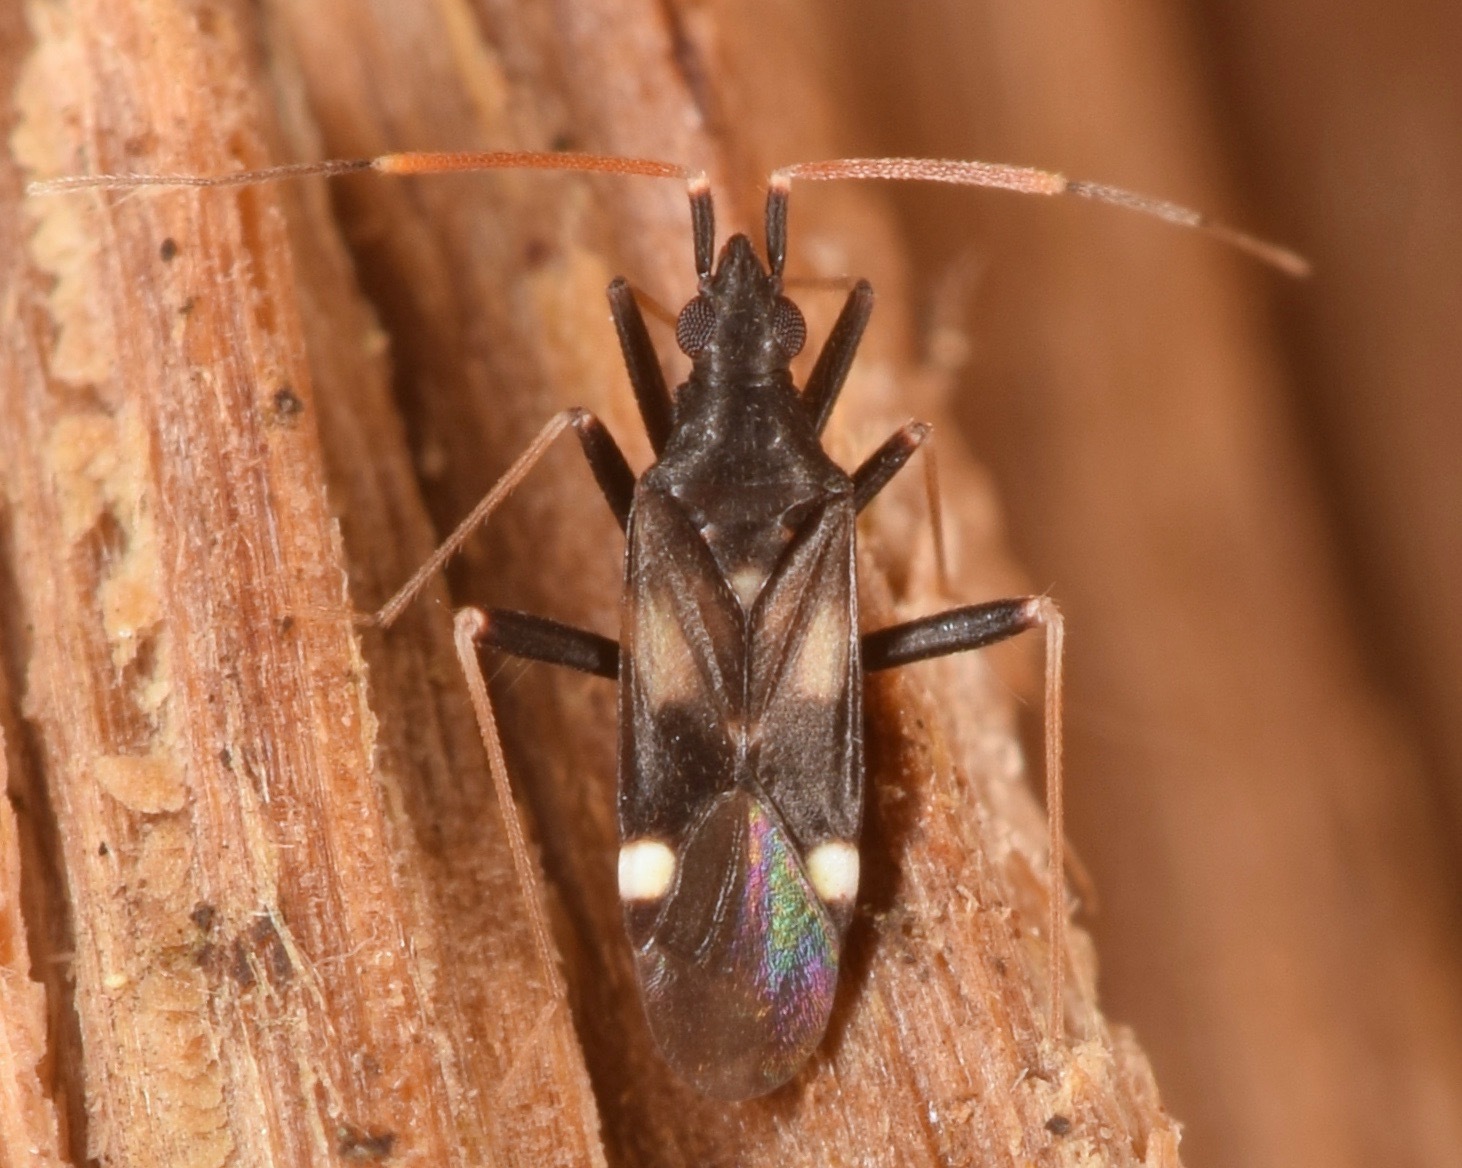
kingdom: Animalia
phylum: Arthropoda
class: Insecta
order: Hemiptera
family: Miridae
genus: Fulvius
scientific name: Fulvius slateri
